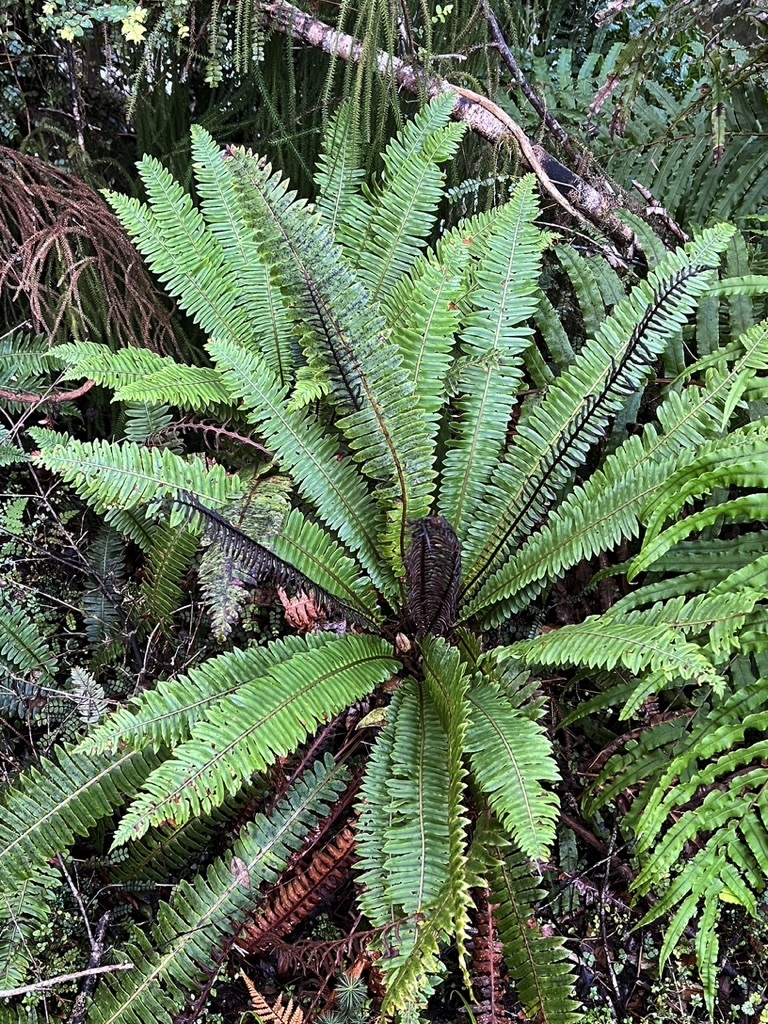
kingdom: Plantae
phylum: Tracheophyta
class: Polypodiopsida
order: Polypodiales
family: Blechnaceae
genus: Lomaria
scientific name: Lomaria discolor
